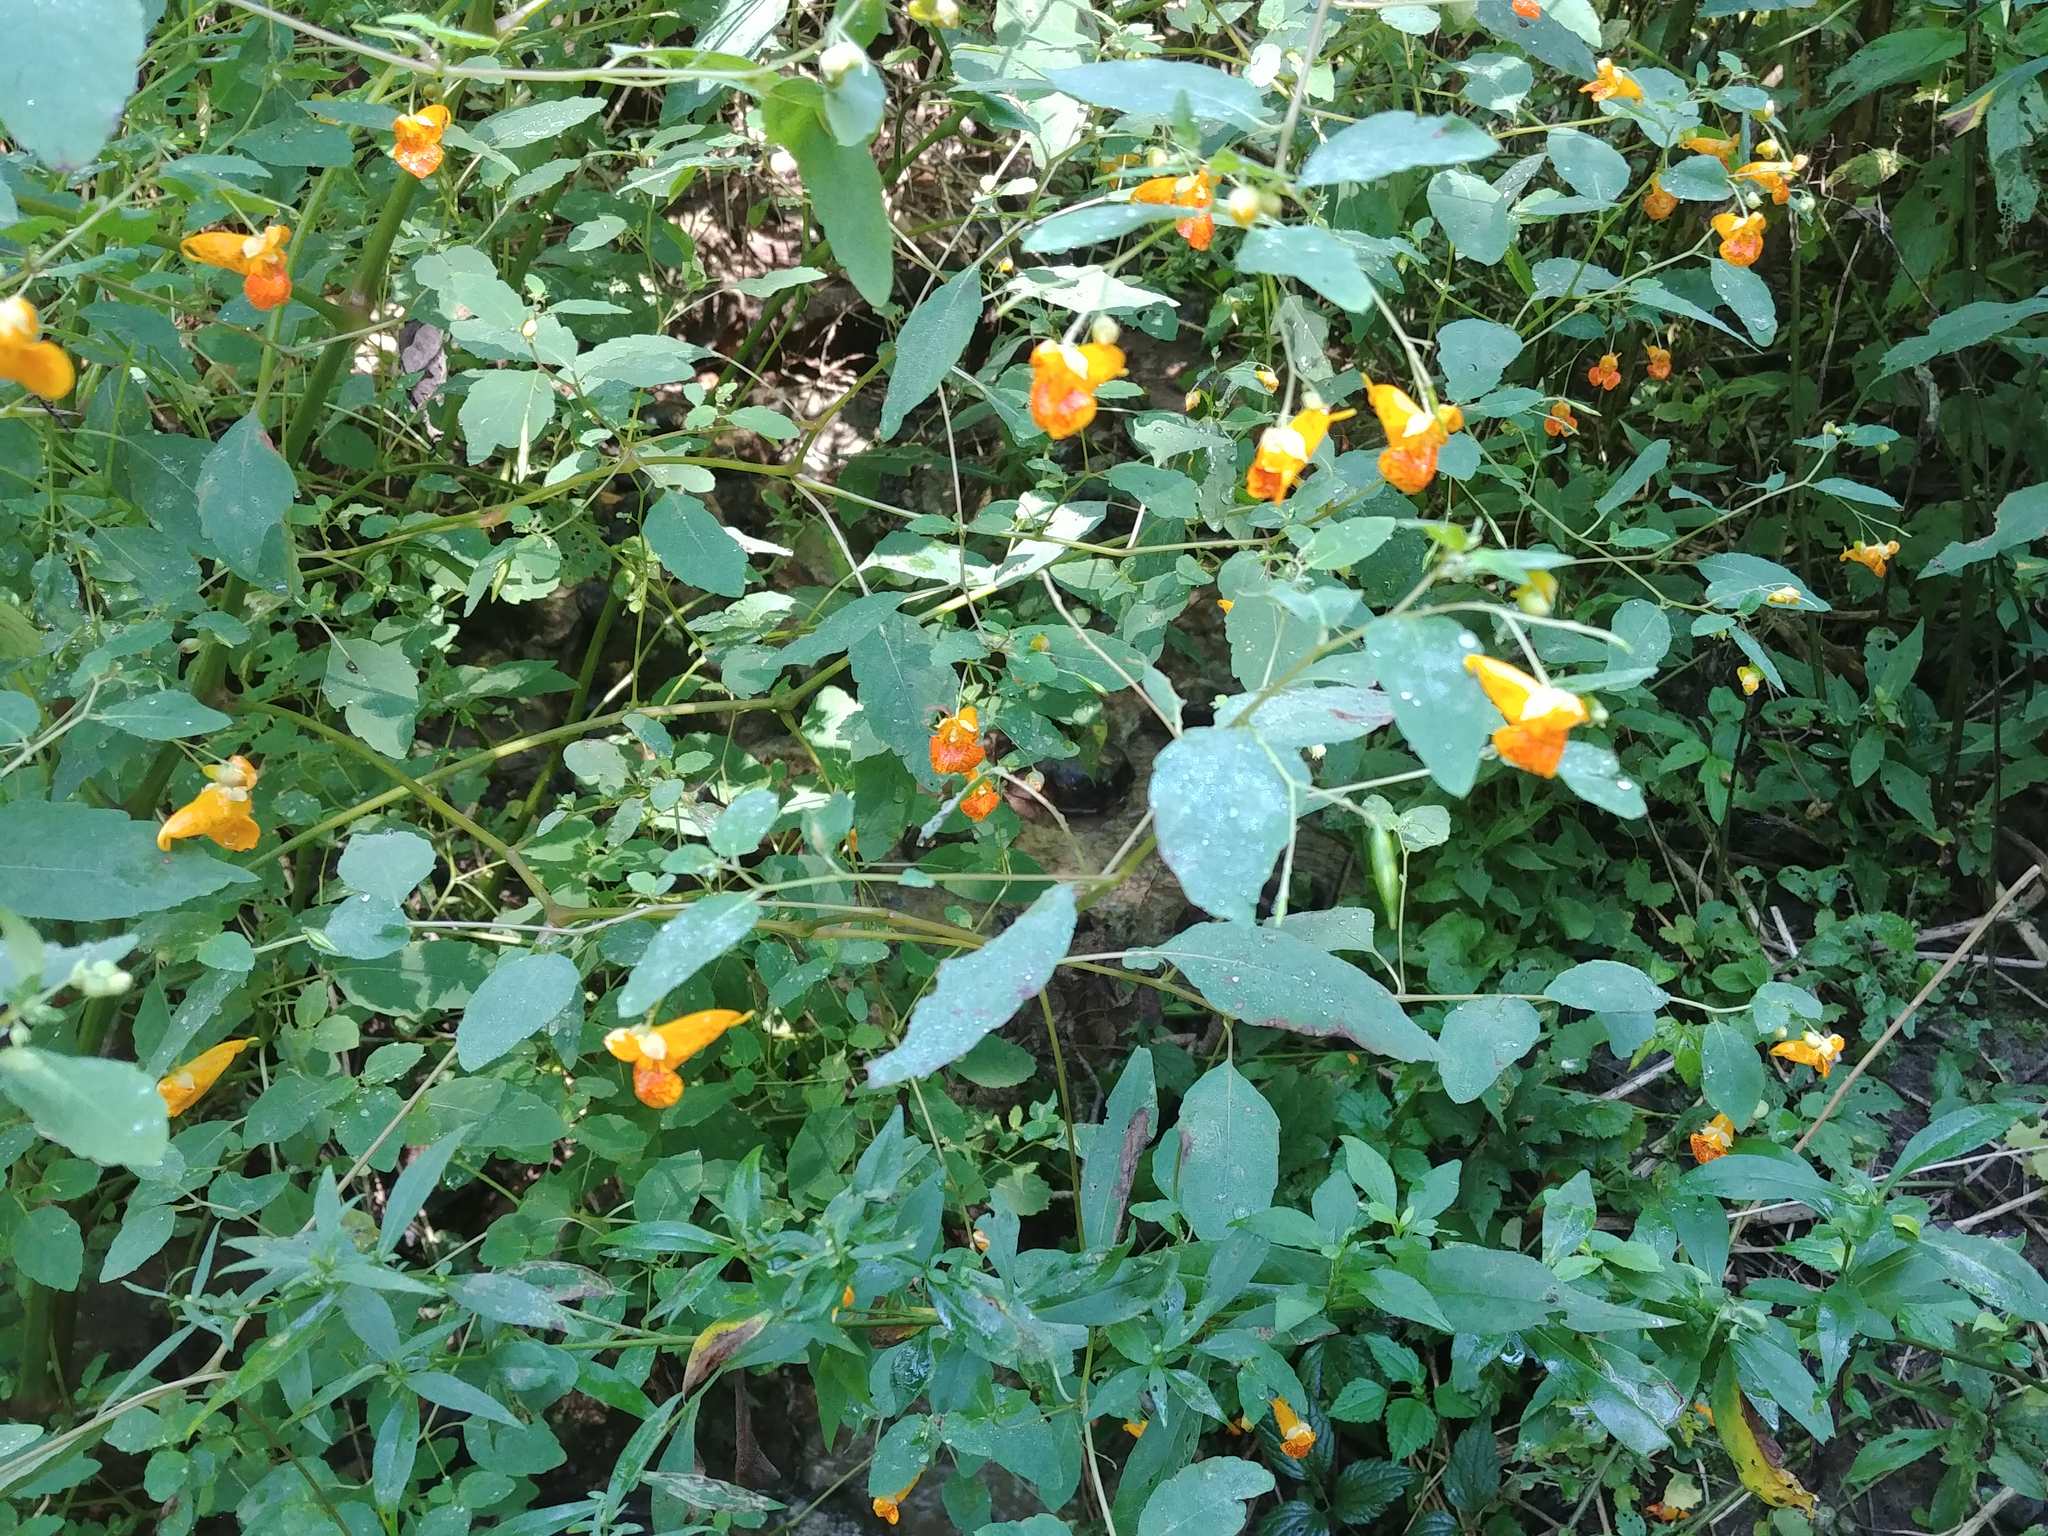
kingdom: Plantae
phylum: Tracheophyta
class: Magnoliopsida
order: Ericales
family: Balsaminaceae
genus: Impatiens
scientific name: Impatiens capensis
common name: Orange balsam
